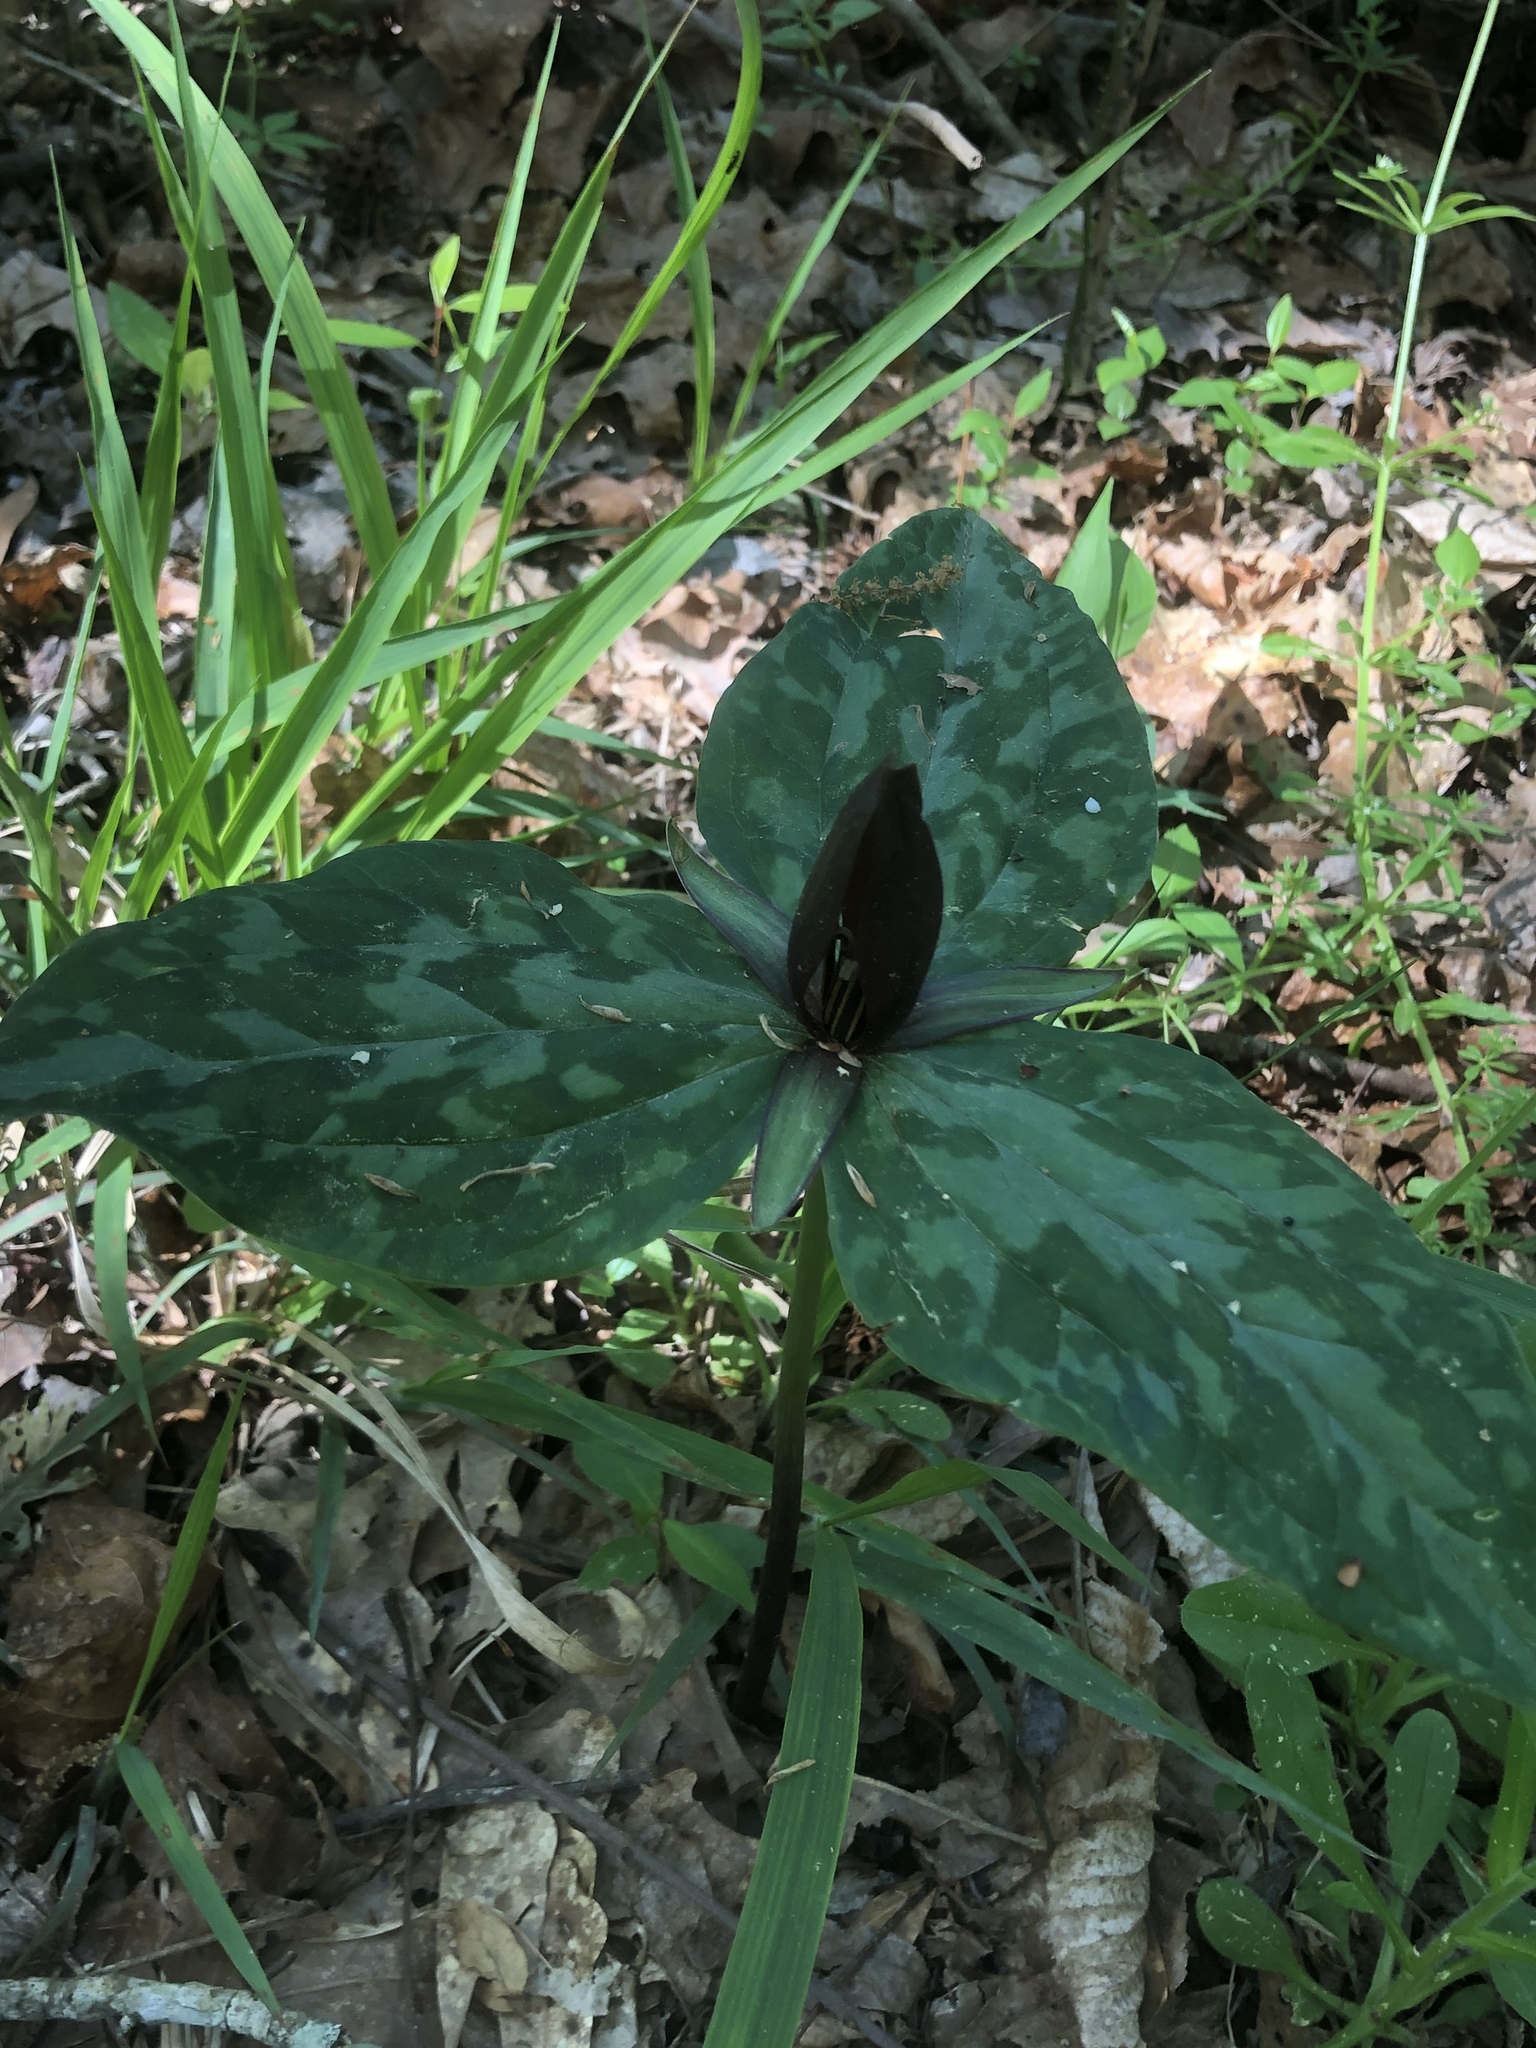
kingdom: Plantae
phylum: Tracheophyta
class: Liliopsida
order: Liliales
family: Melanthiaceae
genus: Trillium
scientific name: Trillium cuneatum
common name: Cuneate trillium
